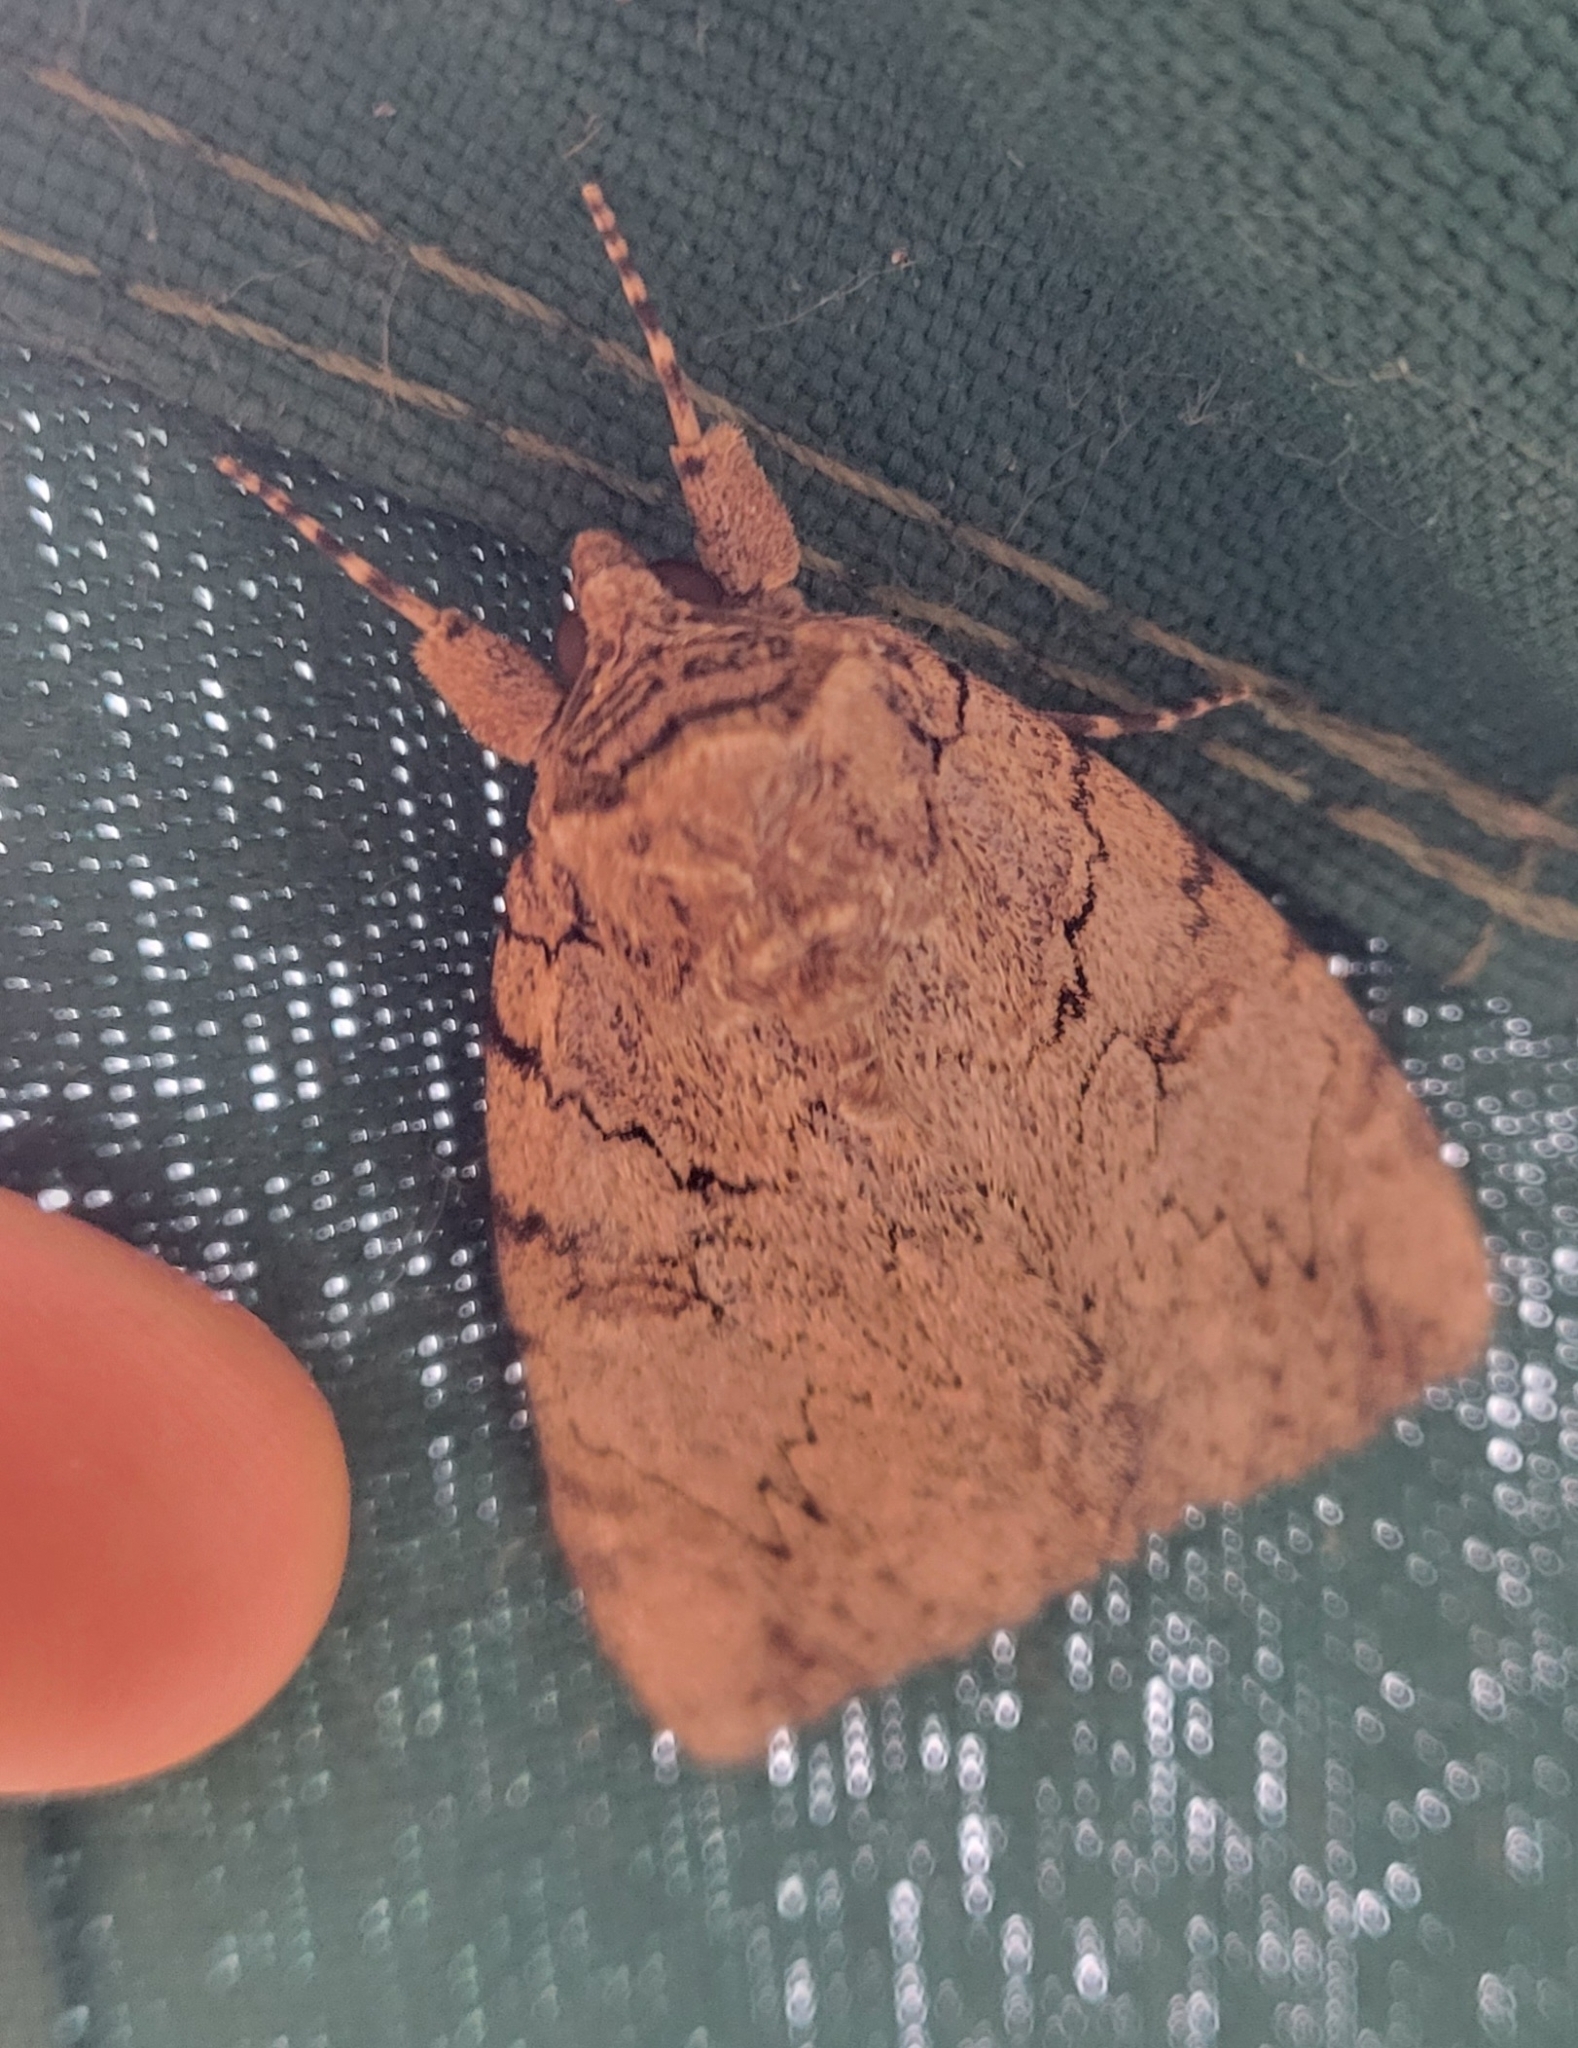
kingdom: Animalia
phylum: Arthropoda
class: Insecta
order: Lepidoptera
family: Erebidae
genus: Catocala
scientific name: Catocala amatrix
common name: Sweetheart underwing
